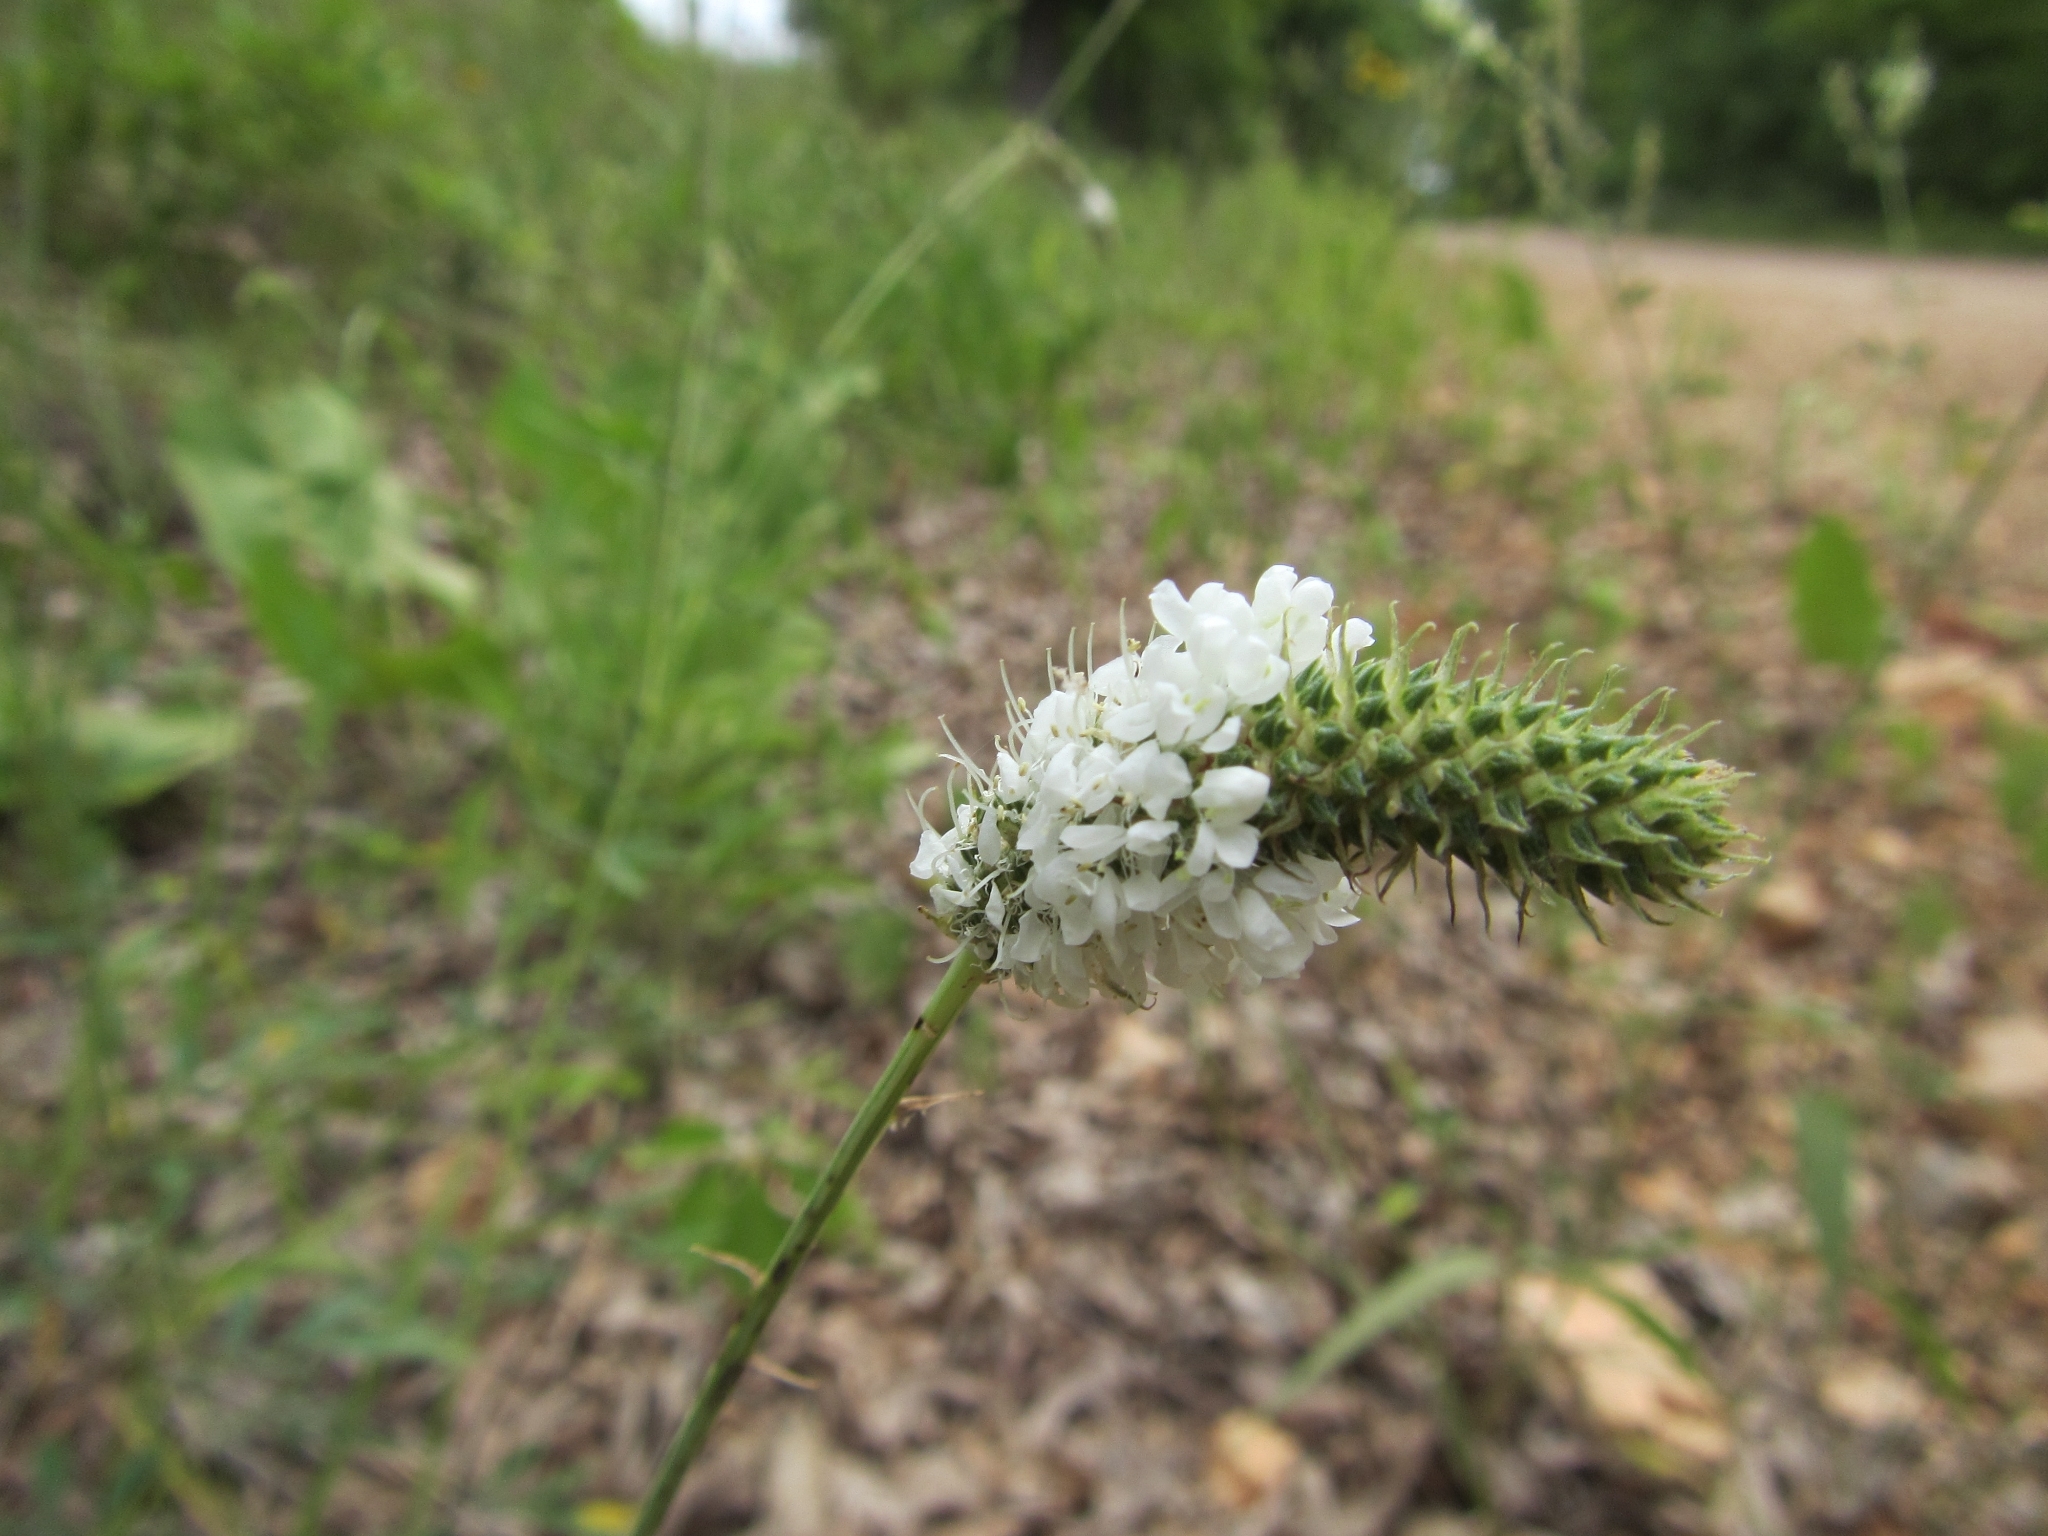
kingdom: Plantae
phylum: Tracheophyta
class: Magnoliopsida
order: Fabales
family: Fabaceae
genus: Dalea
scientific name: Dalea candida
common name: White prairie-clover
